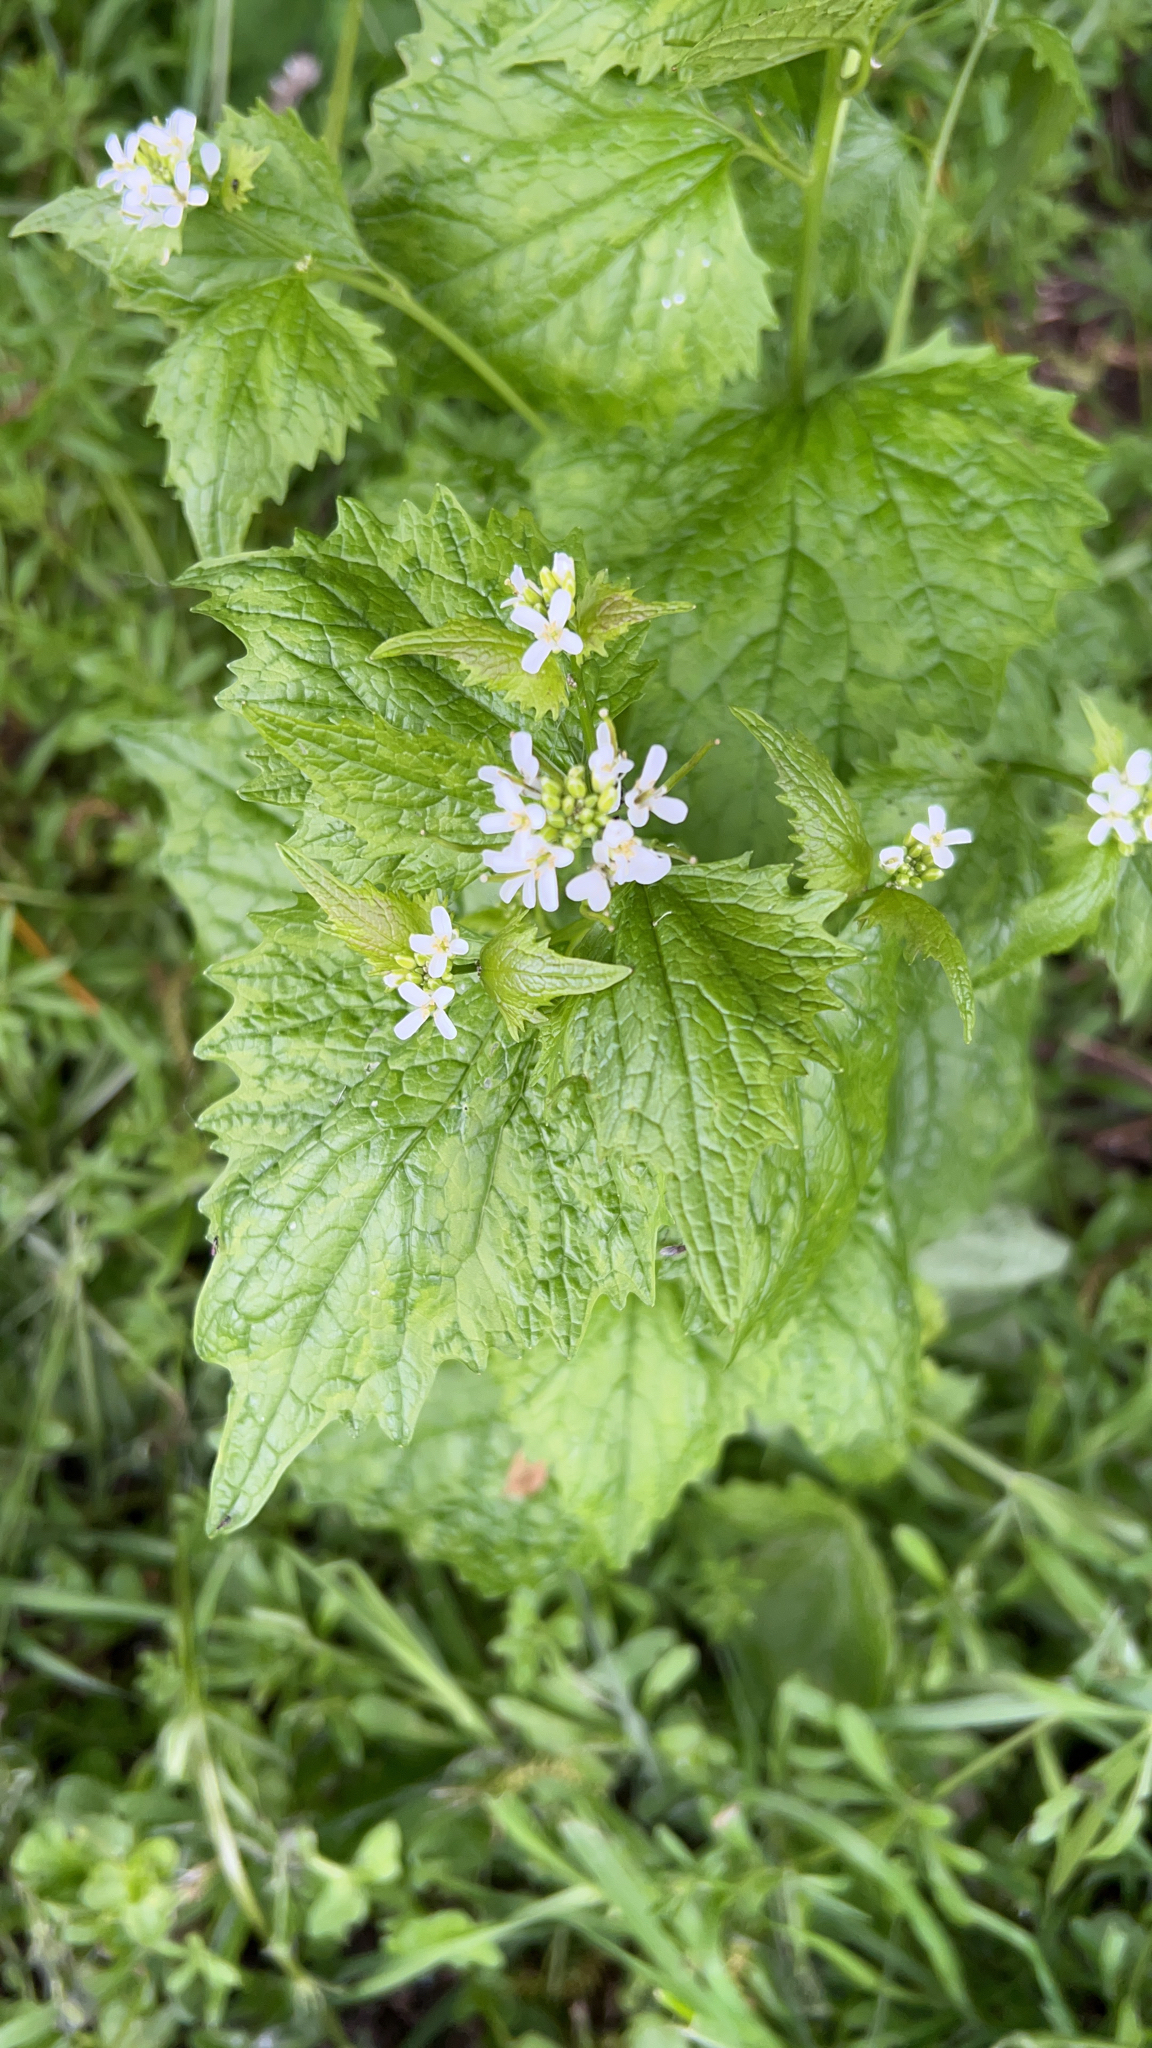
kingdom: Plantae
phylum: Tracheophyta
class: Magnoliopsida
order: Brassicales
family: Brassicaceae
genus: Alliaria
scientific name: Alliaria petiolata
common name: Garlic mustard
